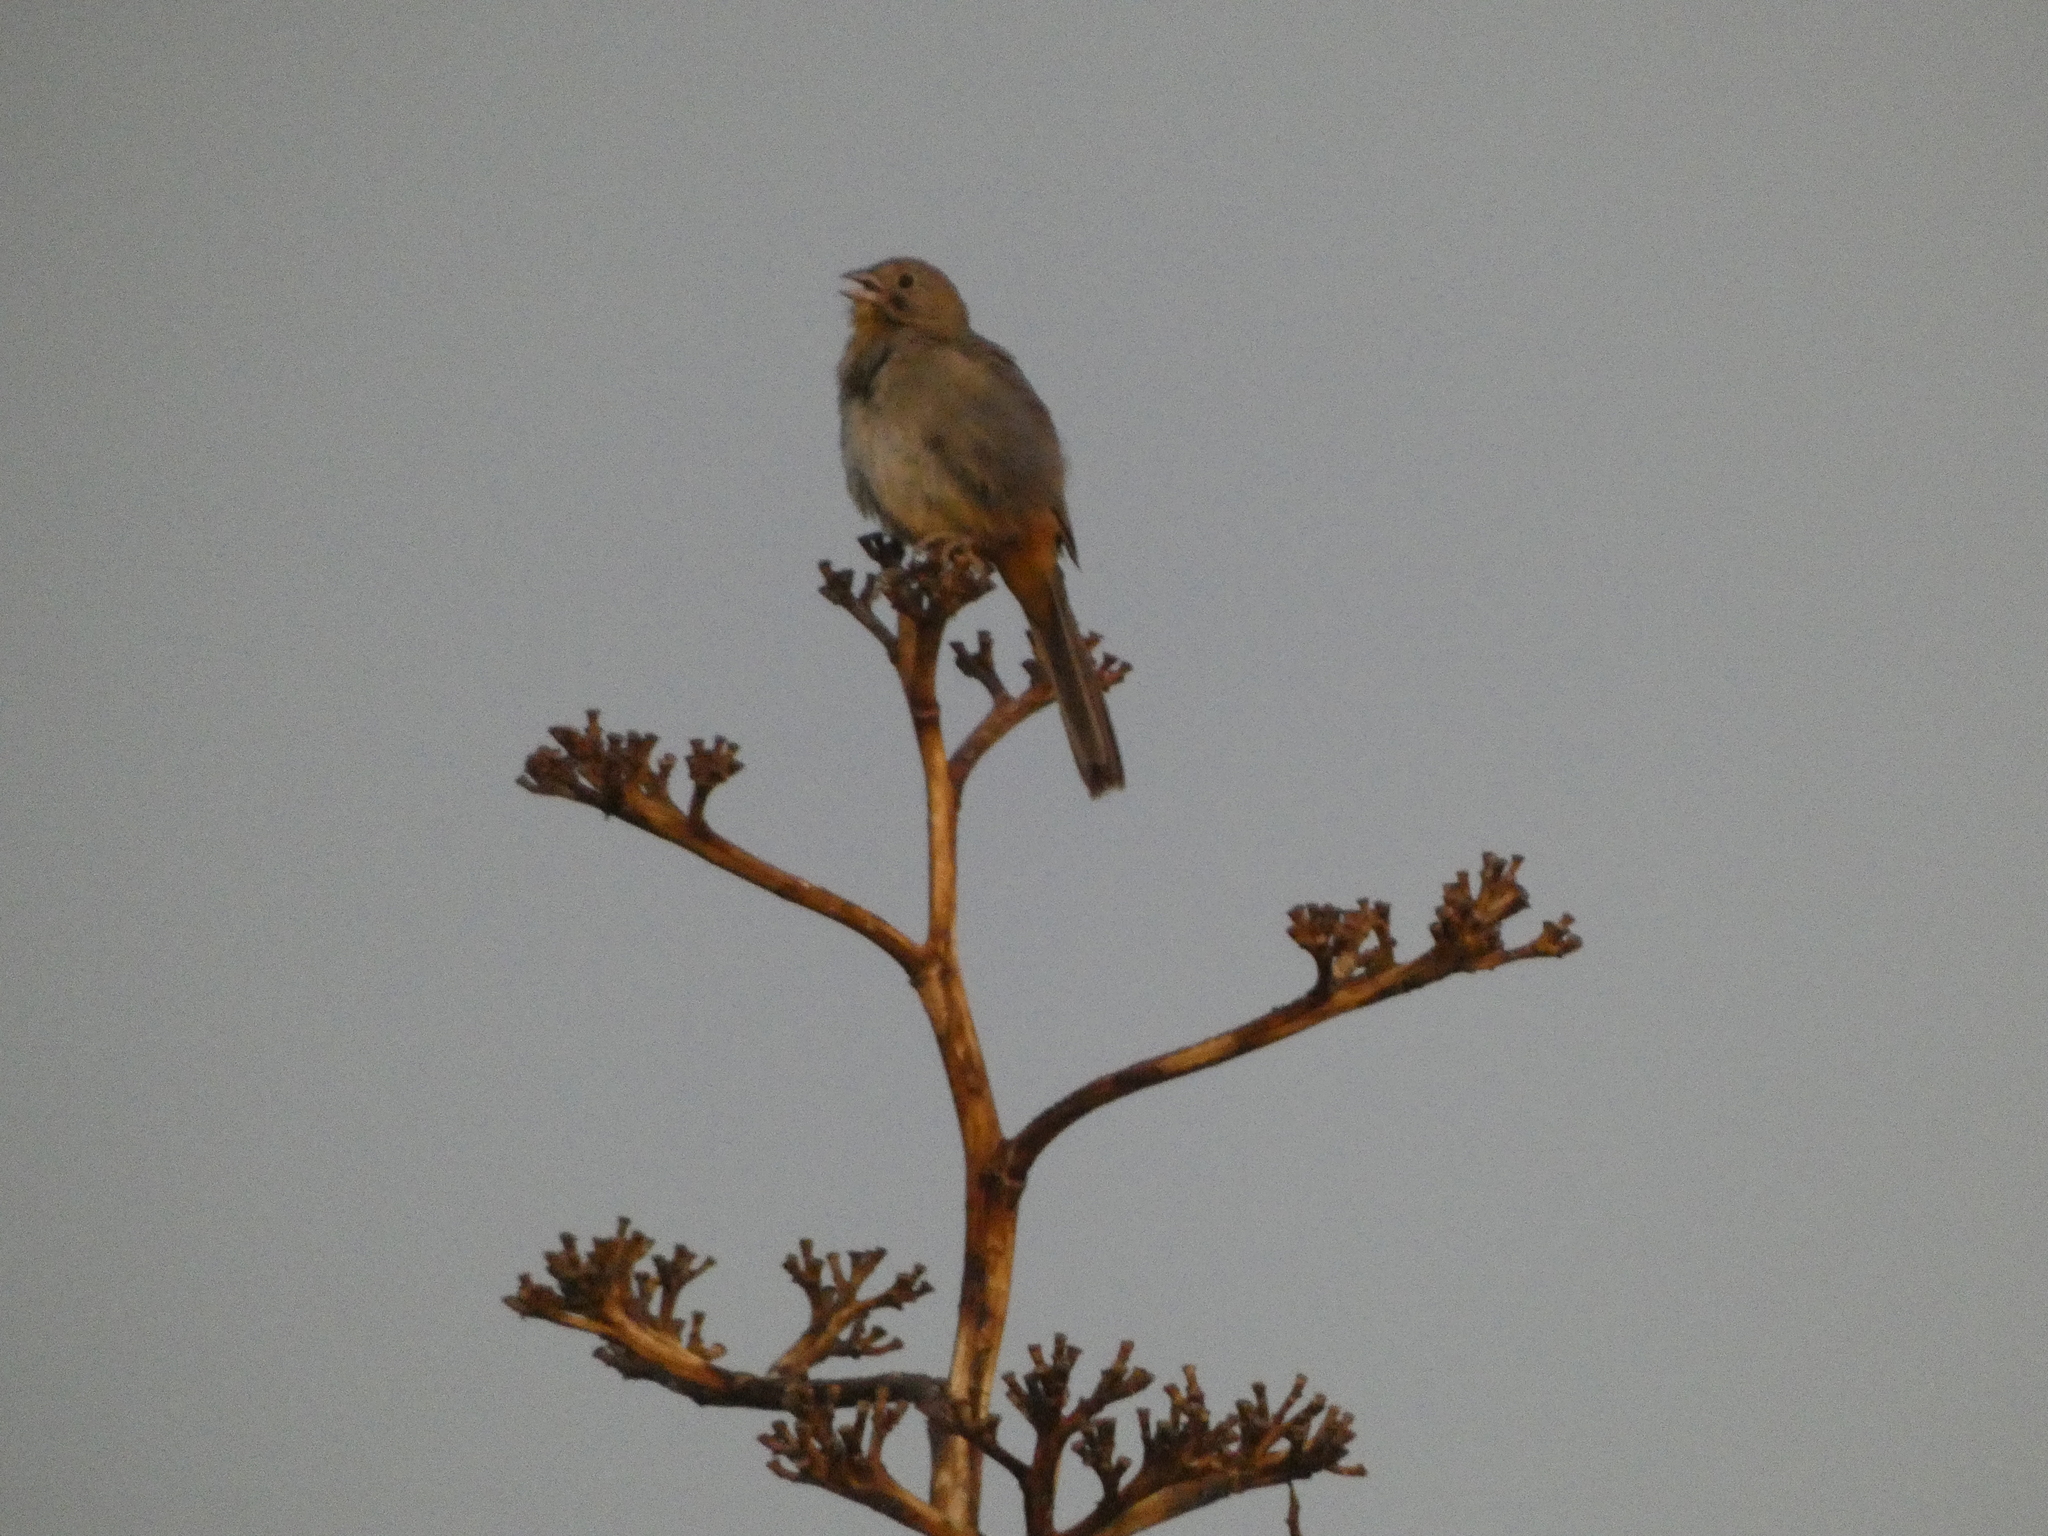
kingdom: Animalia
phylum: Chordata
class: Aves
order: Passeriformes
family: Passerellidae
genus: Melozone
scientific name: Melozone fusca
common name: Canyon towhee
